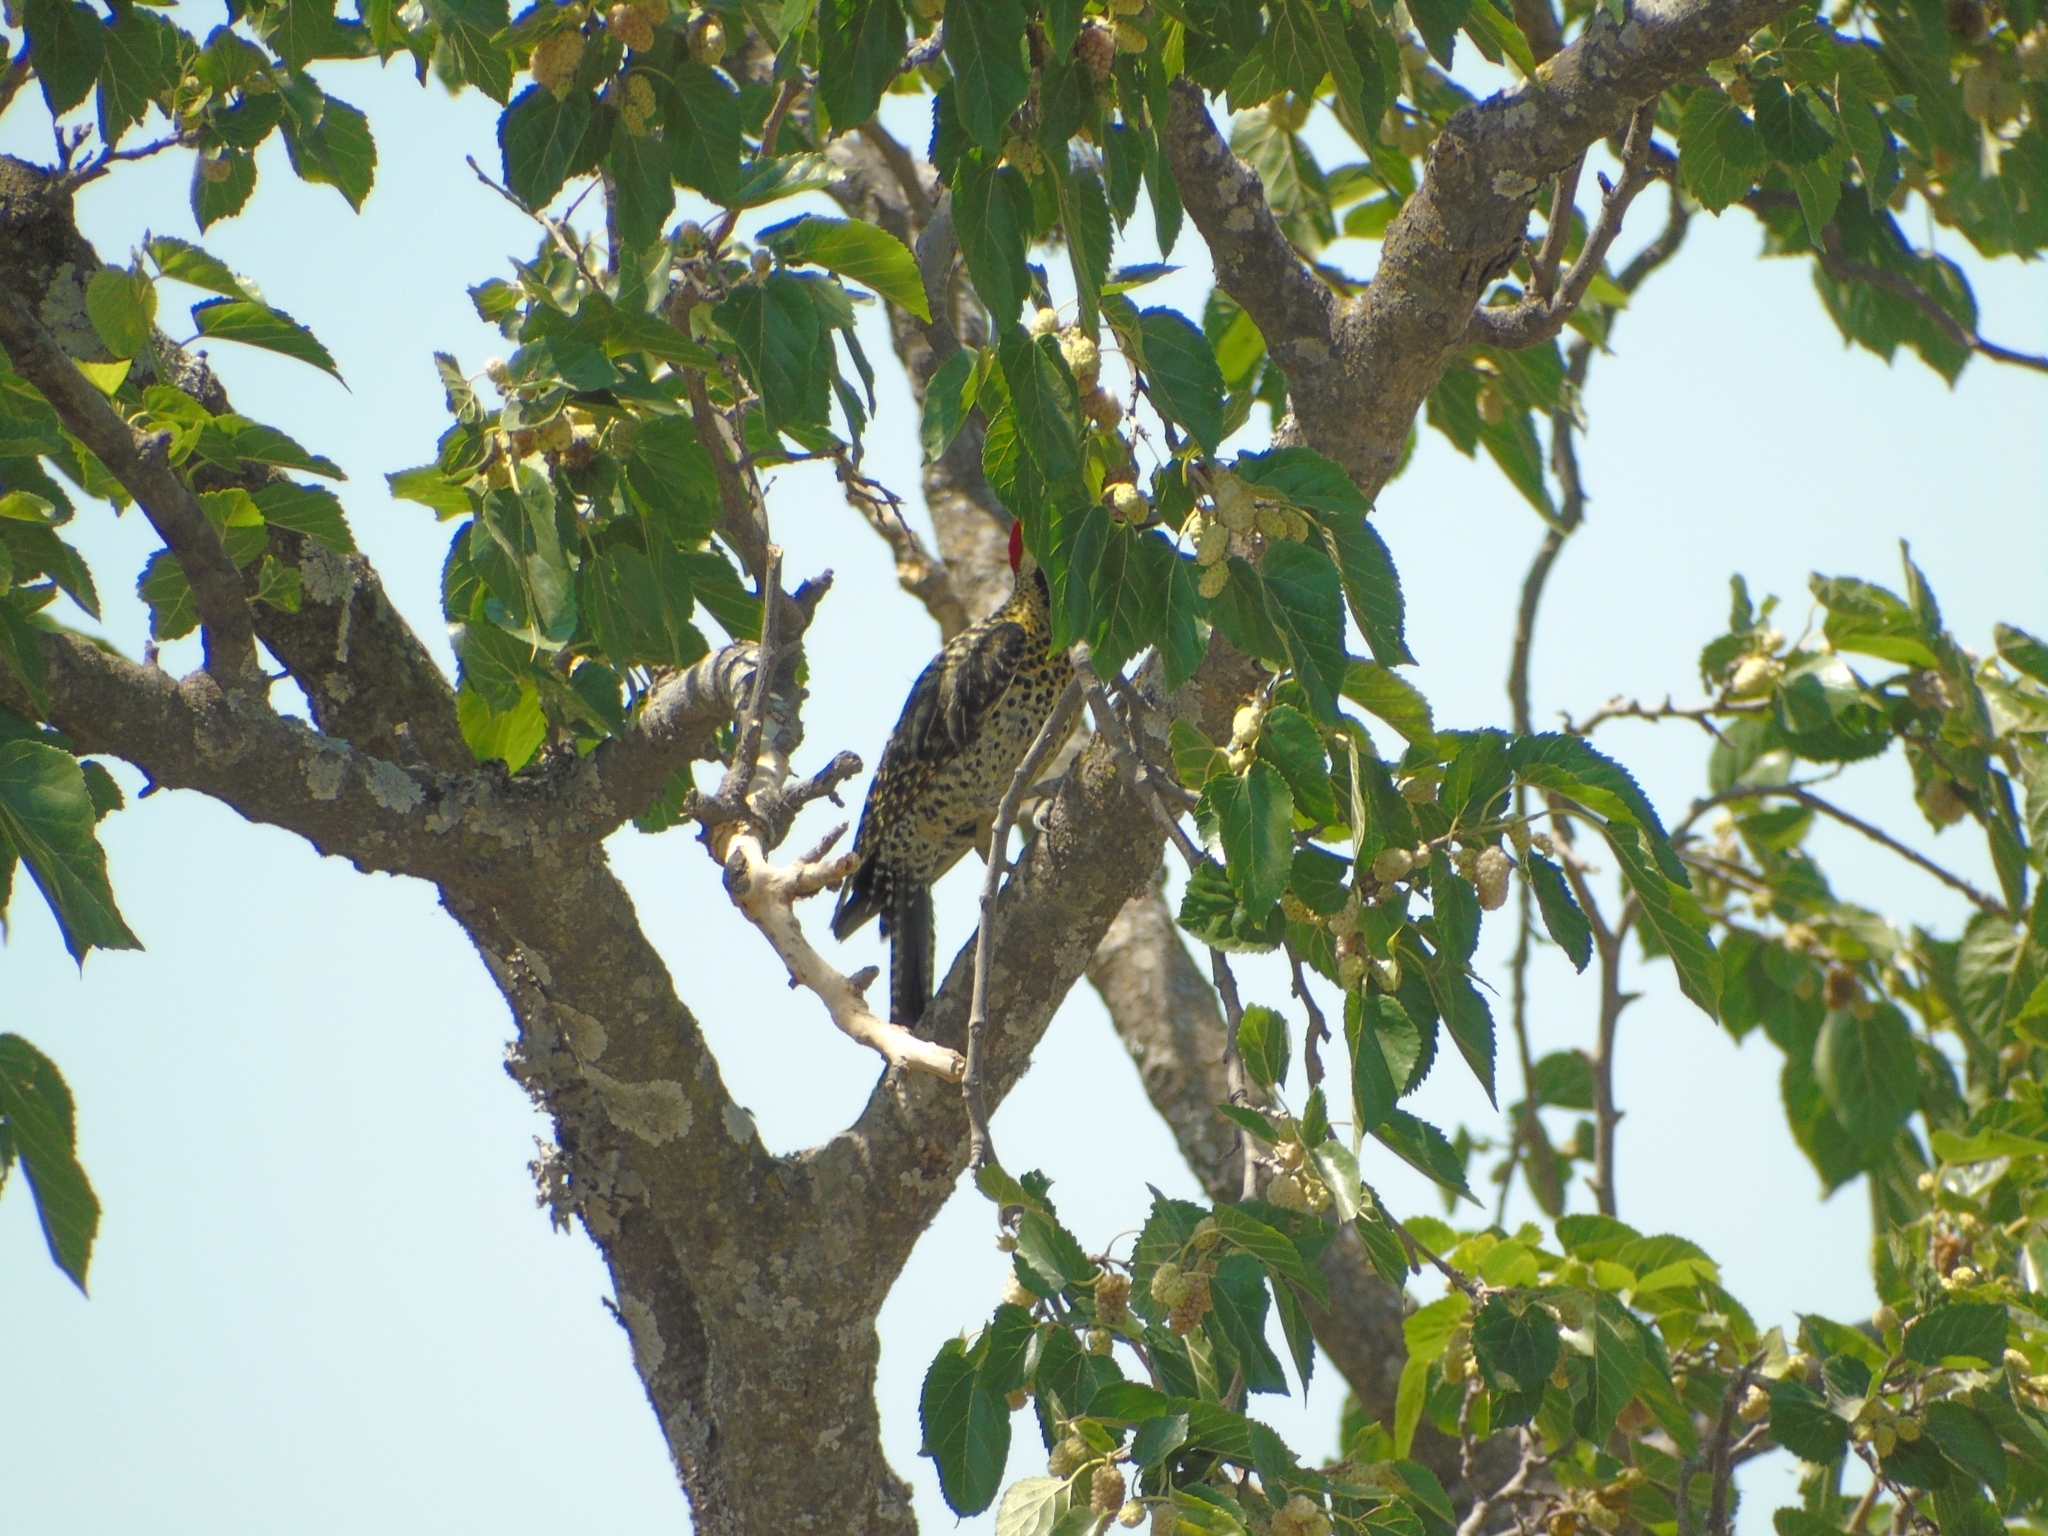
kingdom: Animalia
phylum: Chordata
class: Aves
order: Piciformes
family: Picidae
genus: Colaptes
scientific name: Colaptes melanochloros
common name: Green-barred woodpecker
